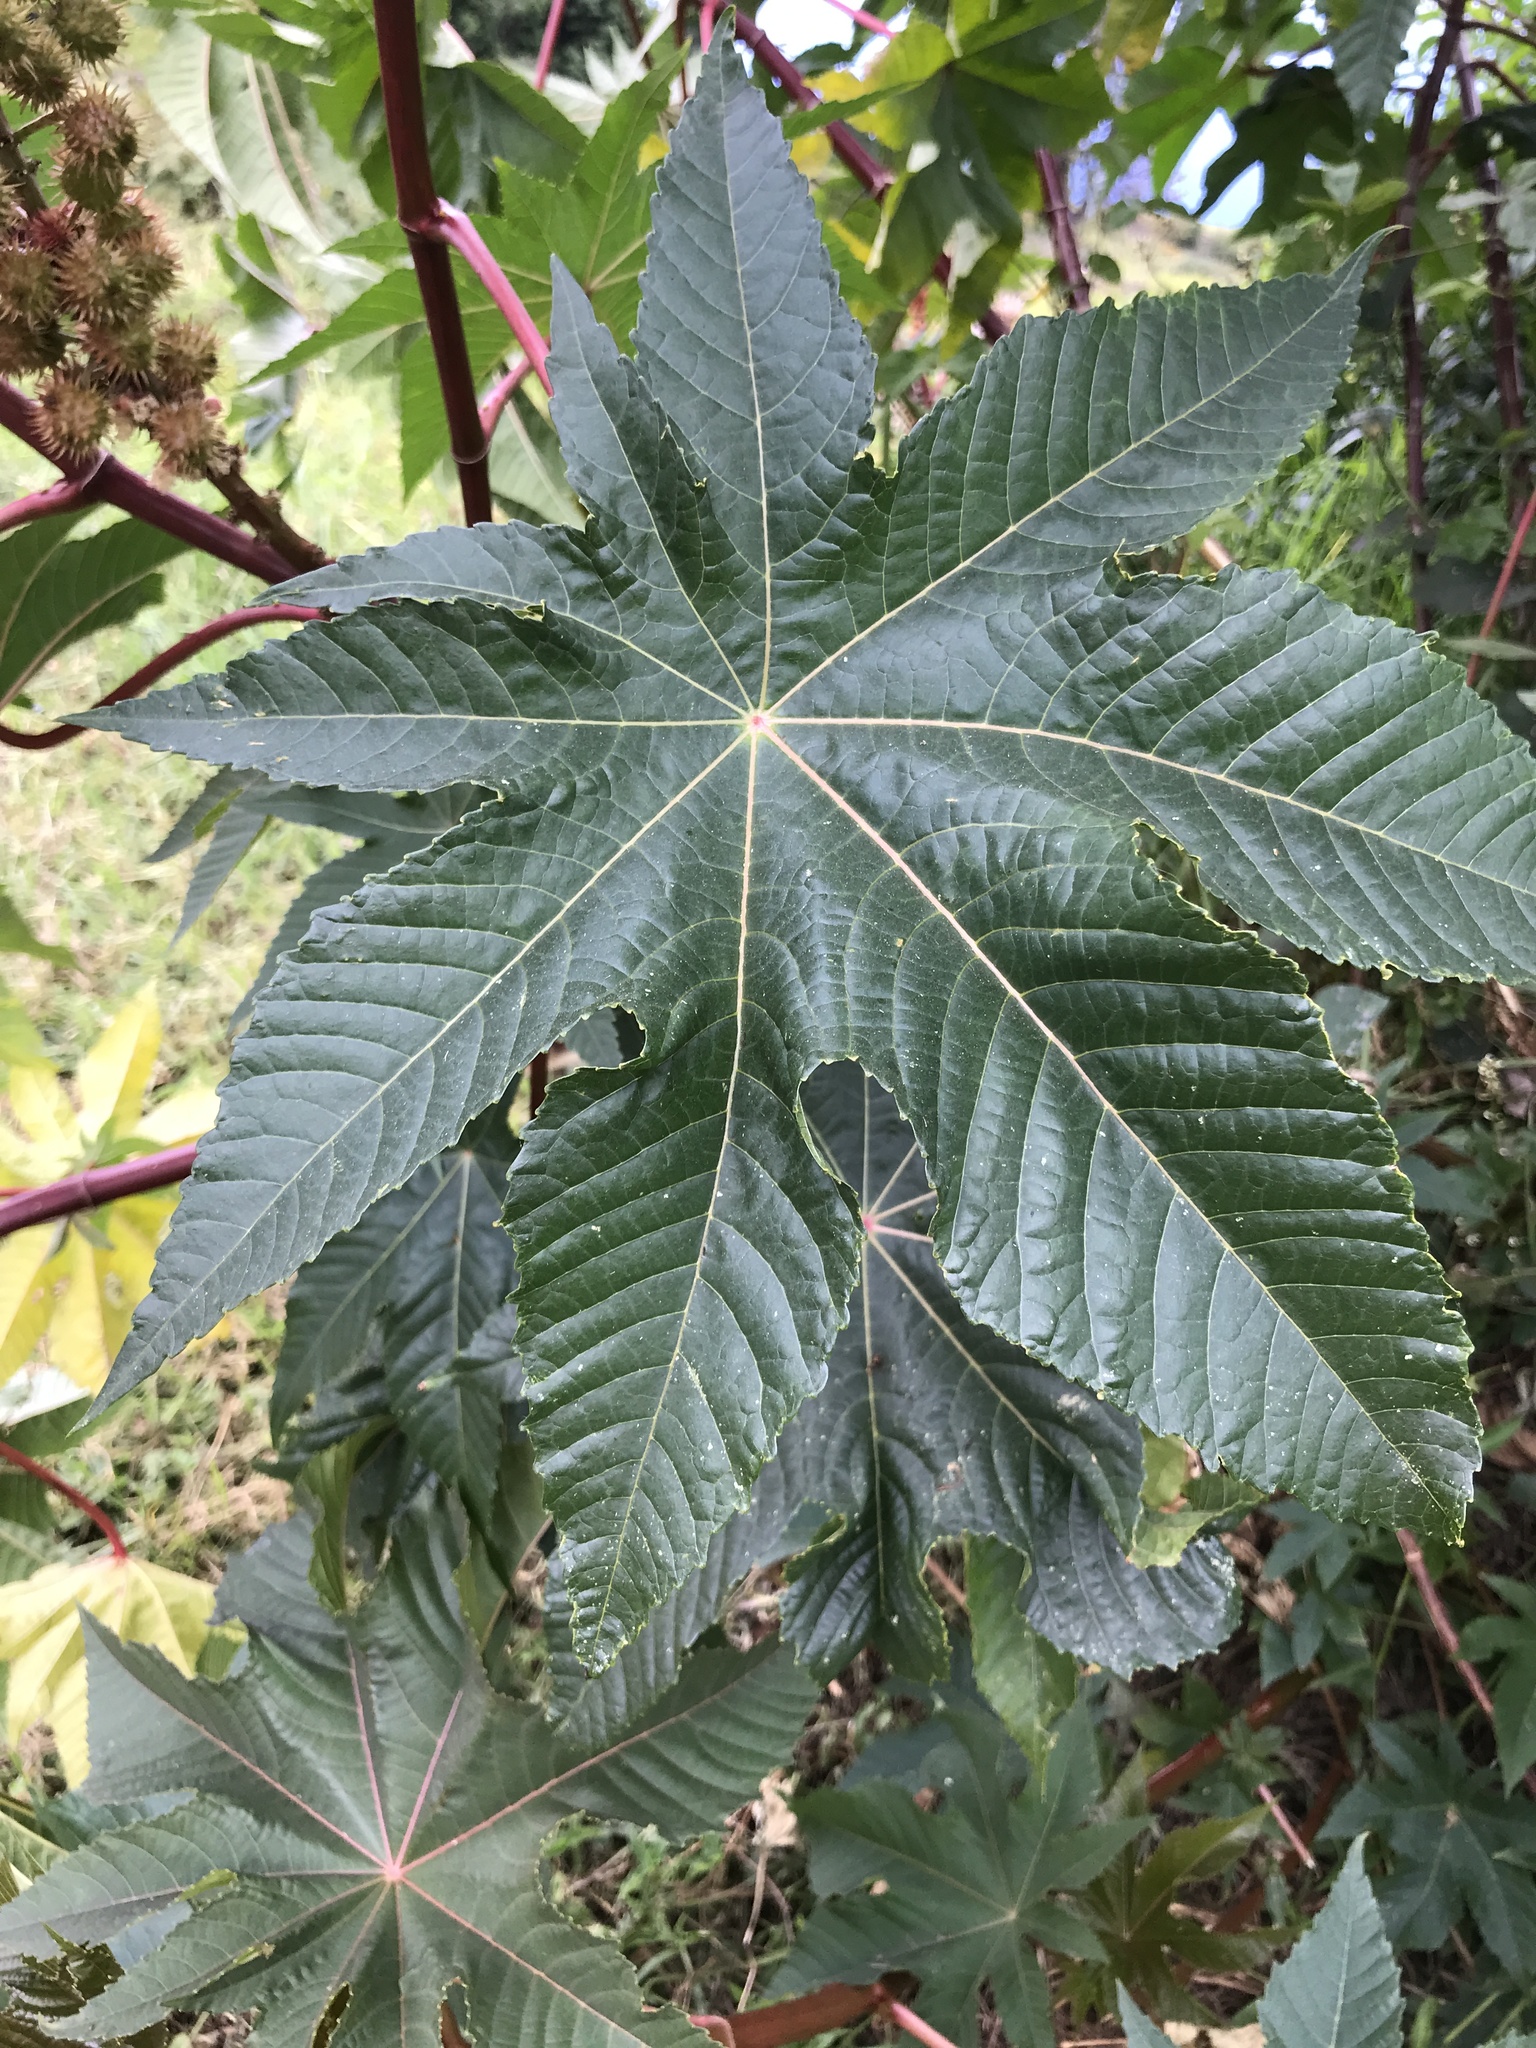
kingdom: Plantae
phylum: Tracheophyta
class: Magnoliopsida
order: Malpighiales
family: Euphorbiaceae
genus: Ricinus
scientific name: Ricinus communis
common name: Castor-oil-plant
